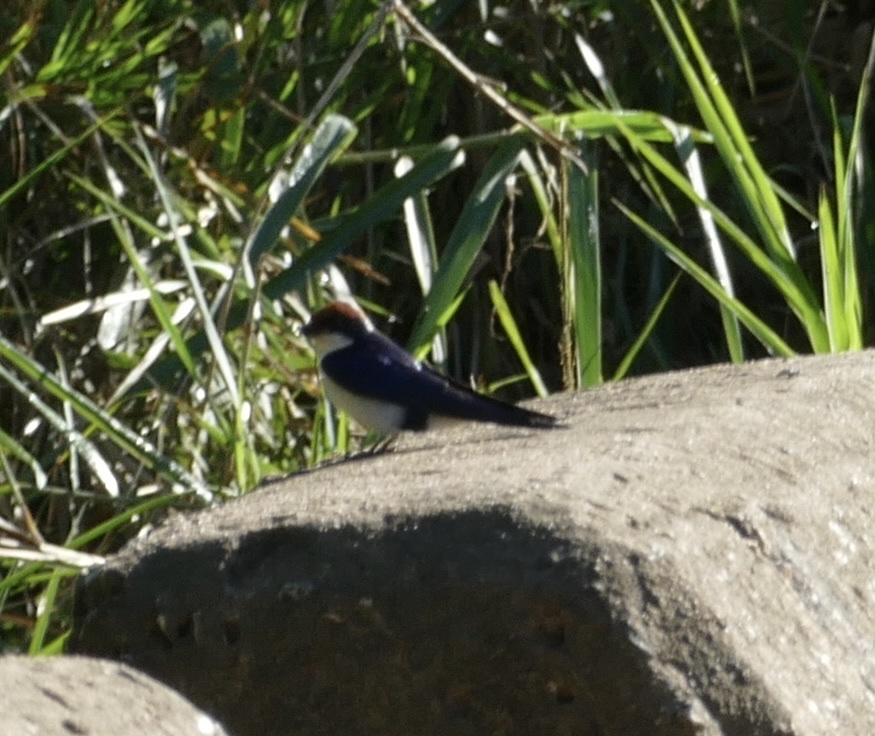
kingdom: Animalia
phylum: Chordata
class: Aves
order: Passeriformes
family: Hirundinidae
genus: Hirundo
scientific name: Hirundo smithii
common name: Wire-tailed swallow
